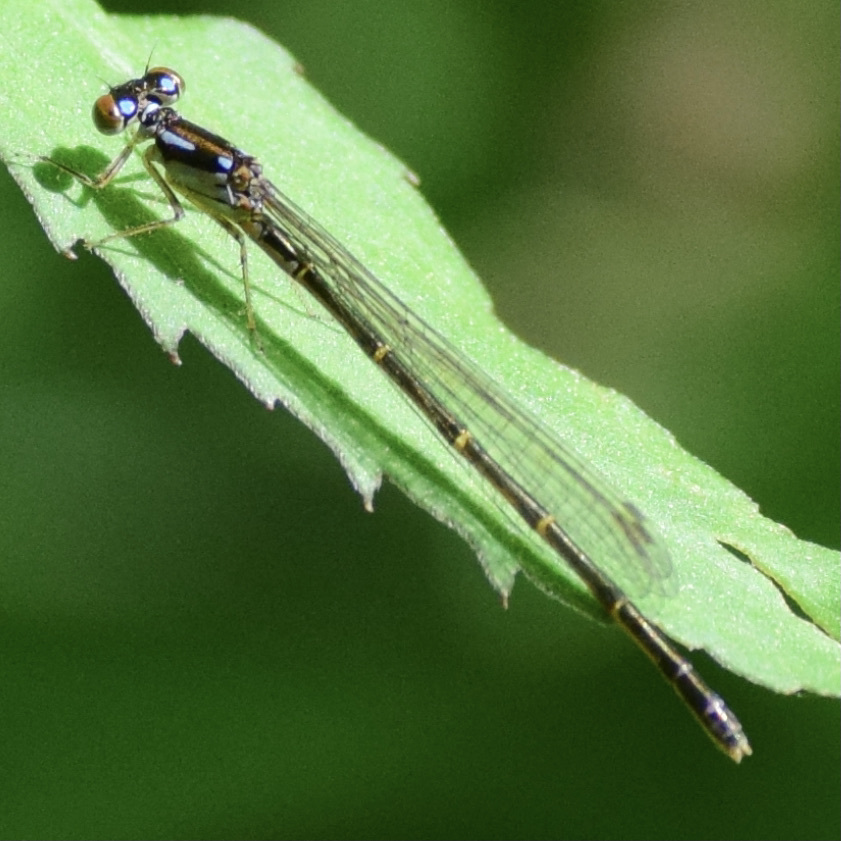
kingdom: Animalia
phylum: Arthropoda
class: Insecta
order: Odonata
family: Coenagrionidae
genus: Ischnura
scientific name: Ischnura posita
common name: Fragile forktail
